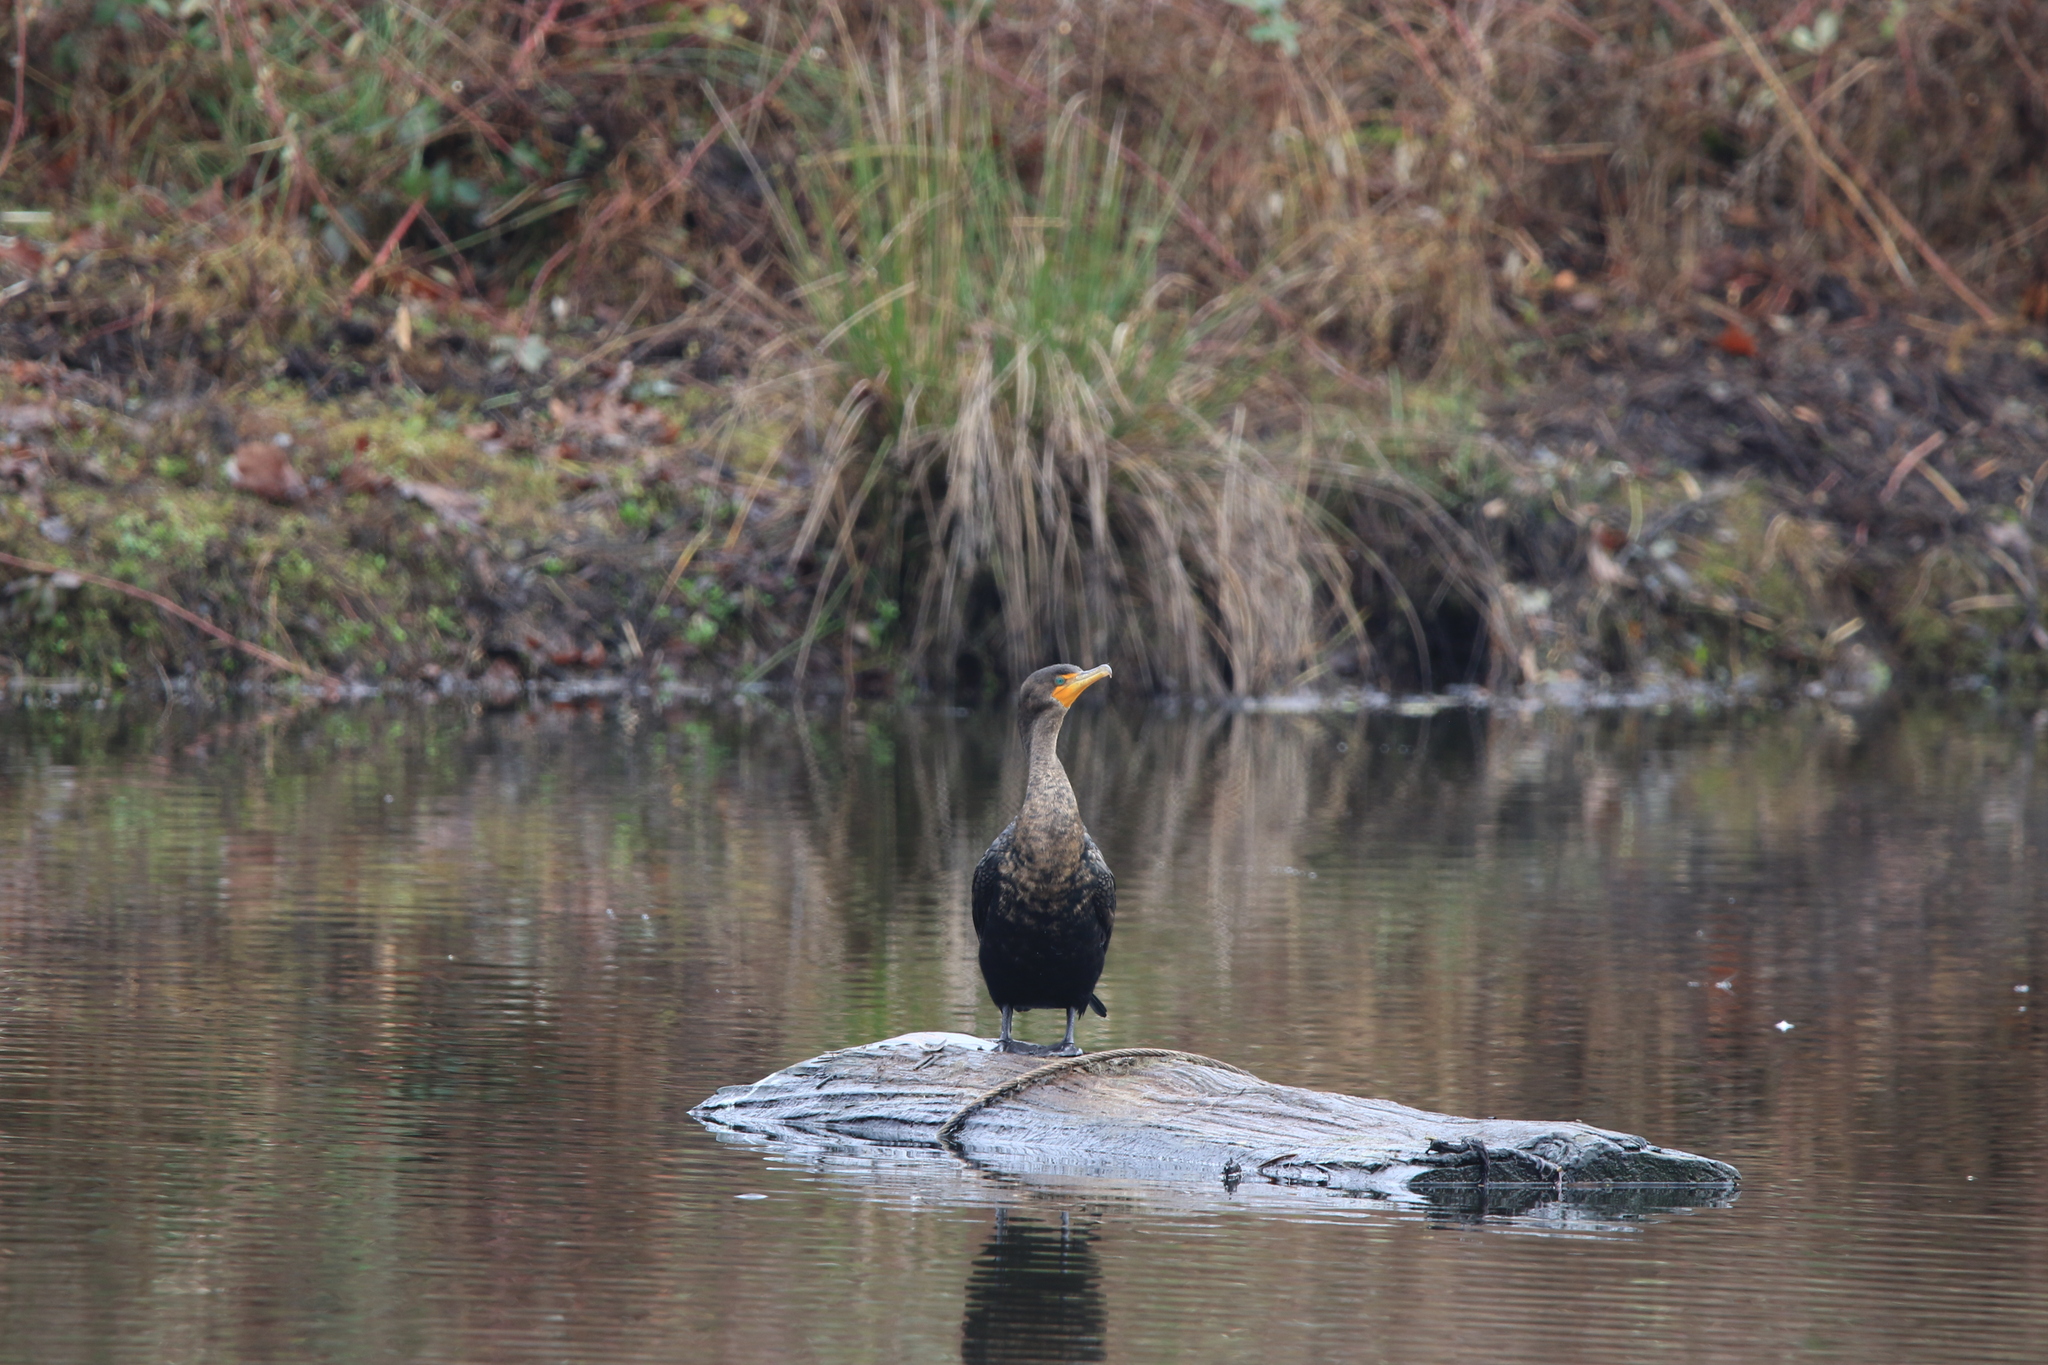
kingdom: Animalia
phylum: Chordata
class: Aves
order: Suliformes
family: Phalacrocoracidae
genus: Phalacrocorax
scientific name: Phalacrocorax auritus
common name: Double-crested cormorant
